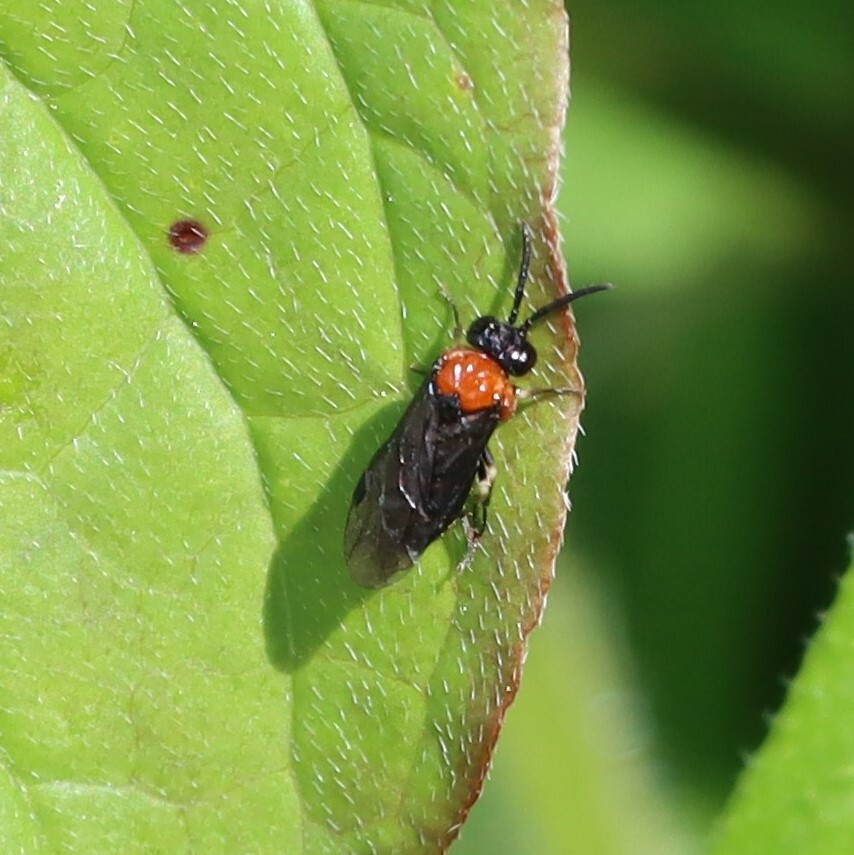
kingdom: Animalia
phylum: Arthropoda
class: Insecta
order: Hymenoptera
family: Tenthredinidae
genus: Eutomostethus
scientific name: Eutomostethus ephippium
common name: Tenthredid wasp
